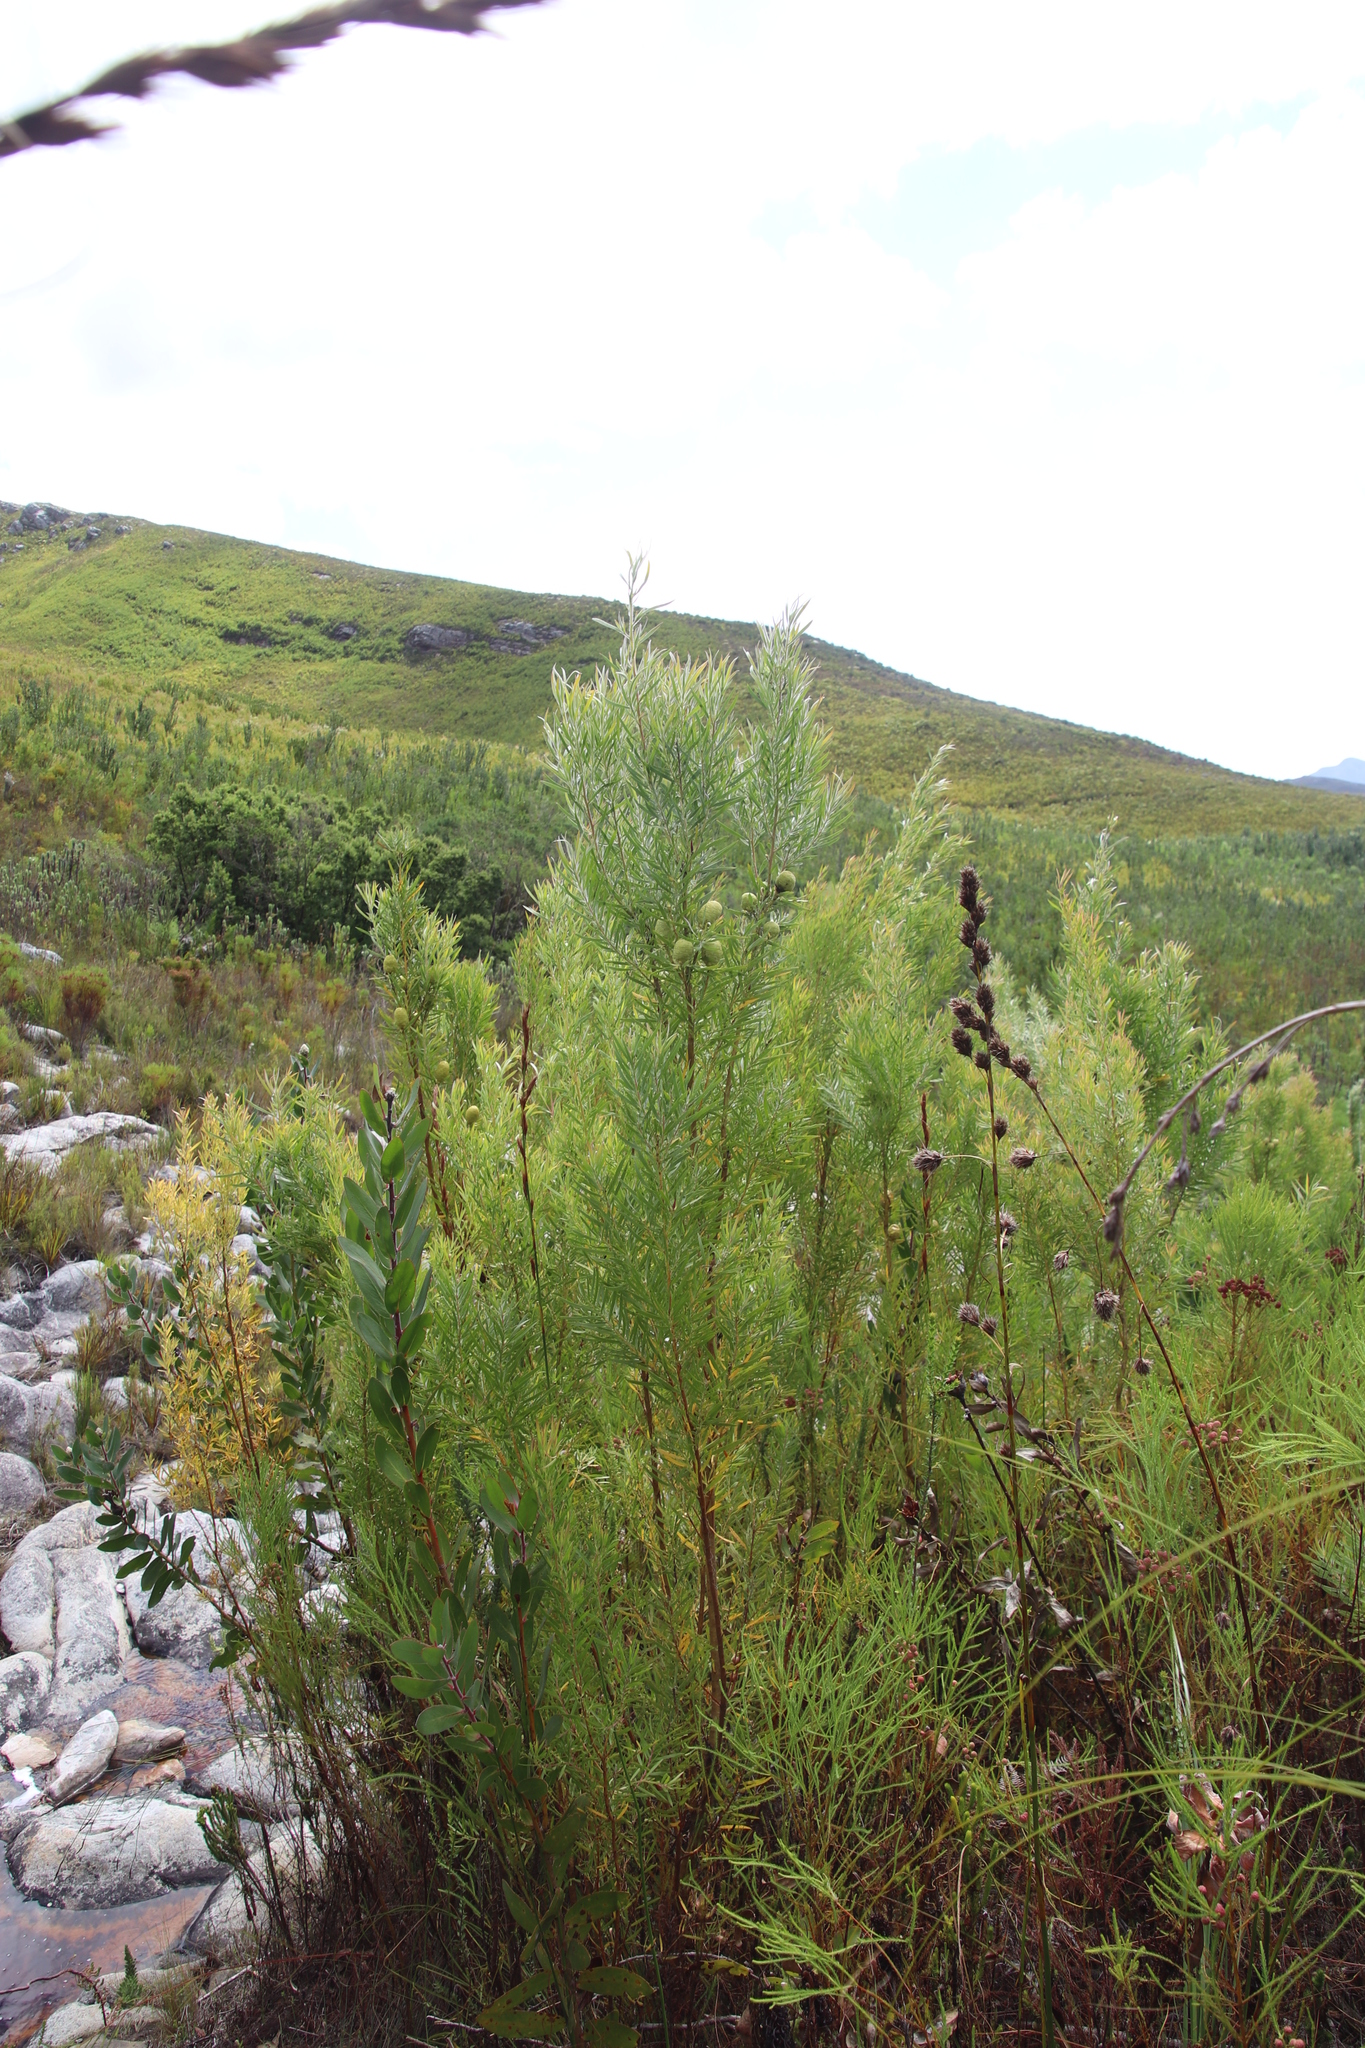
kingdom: Plantae
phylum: Tracheophyta
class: Magnoliopsida
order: Asterales
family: Asteraceae
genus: Brachylaena
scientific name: Brachylaena neriifolia
